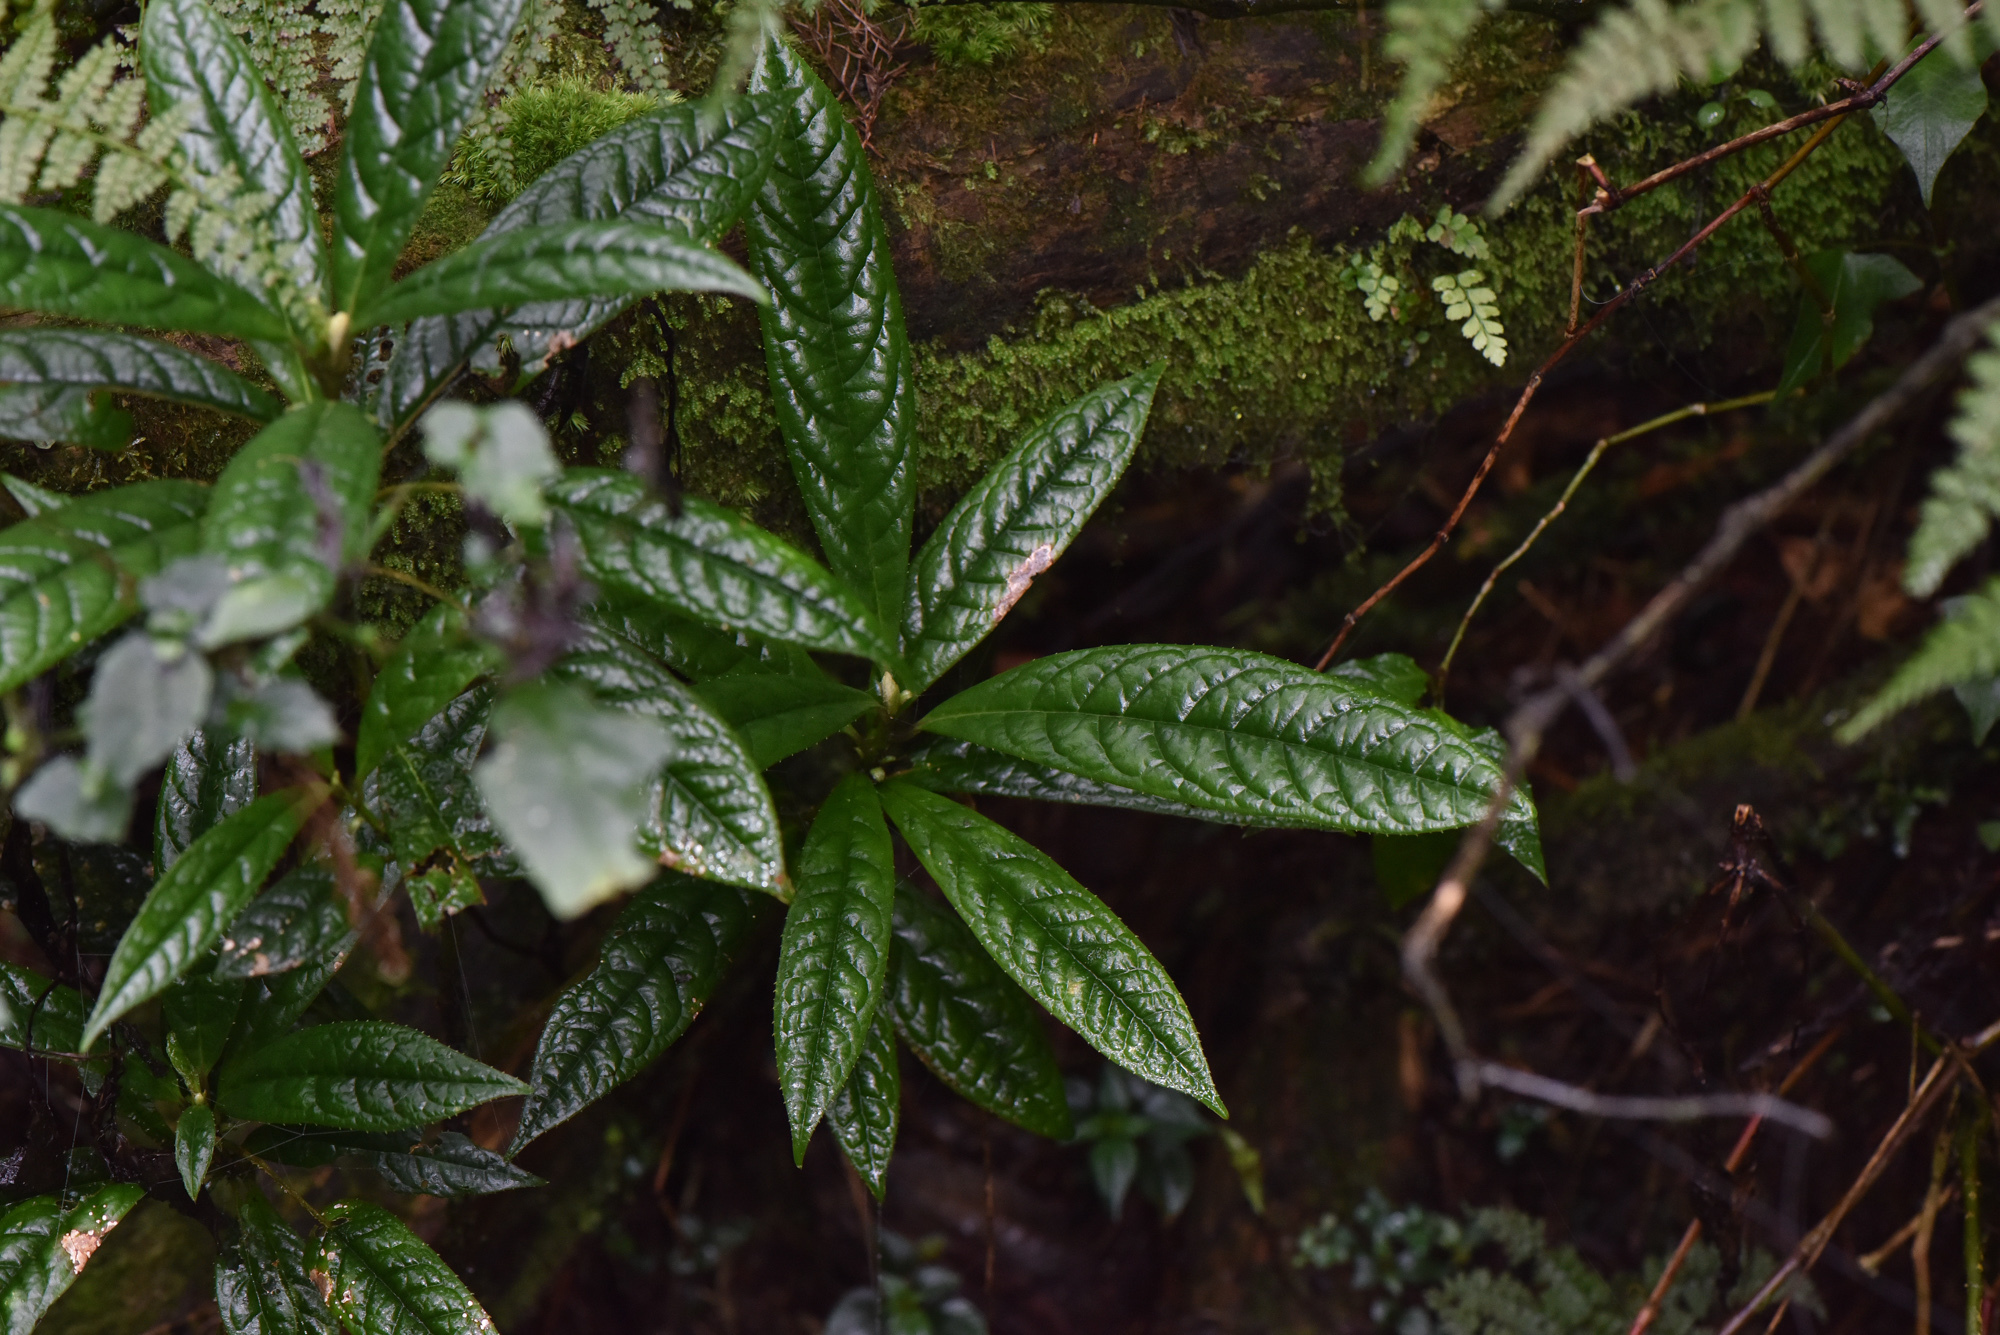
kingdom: Plantae
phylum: Tracheophyta
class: Magnoliopsida
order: Ericales
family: Symplocaceae
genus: Symplocos
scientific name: Symplocos stellaris
